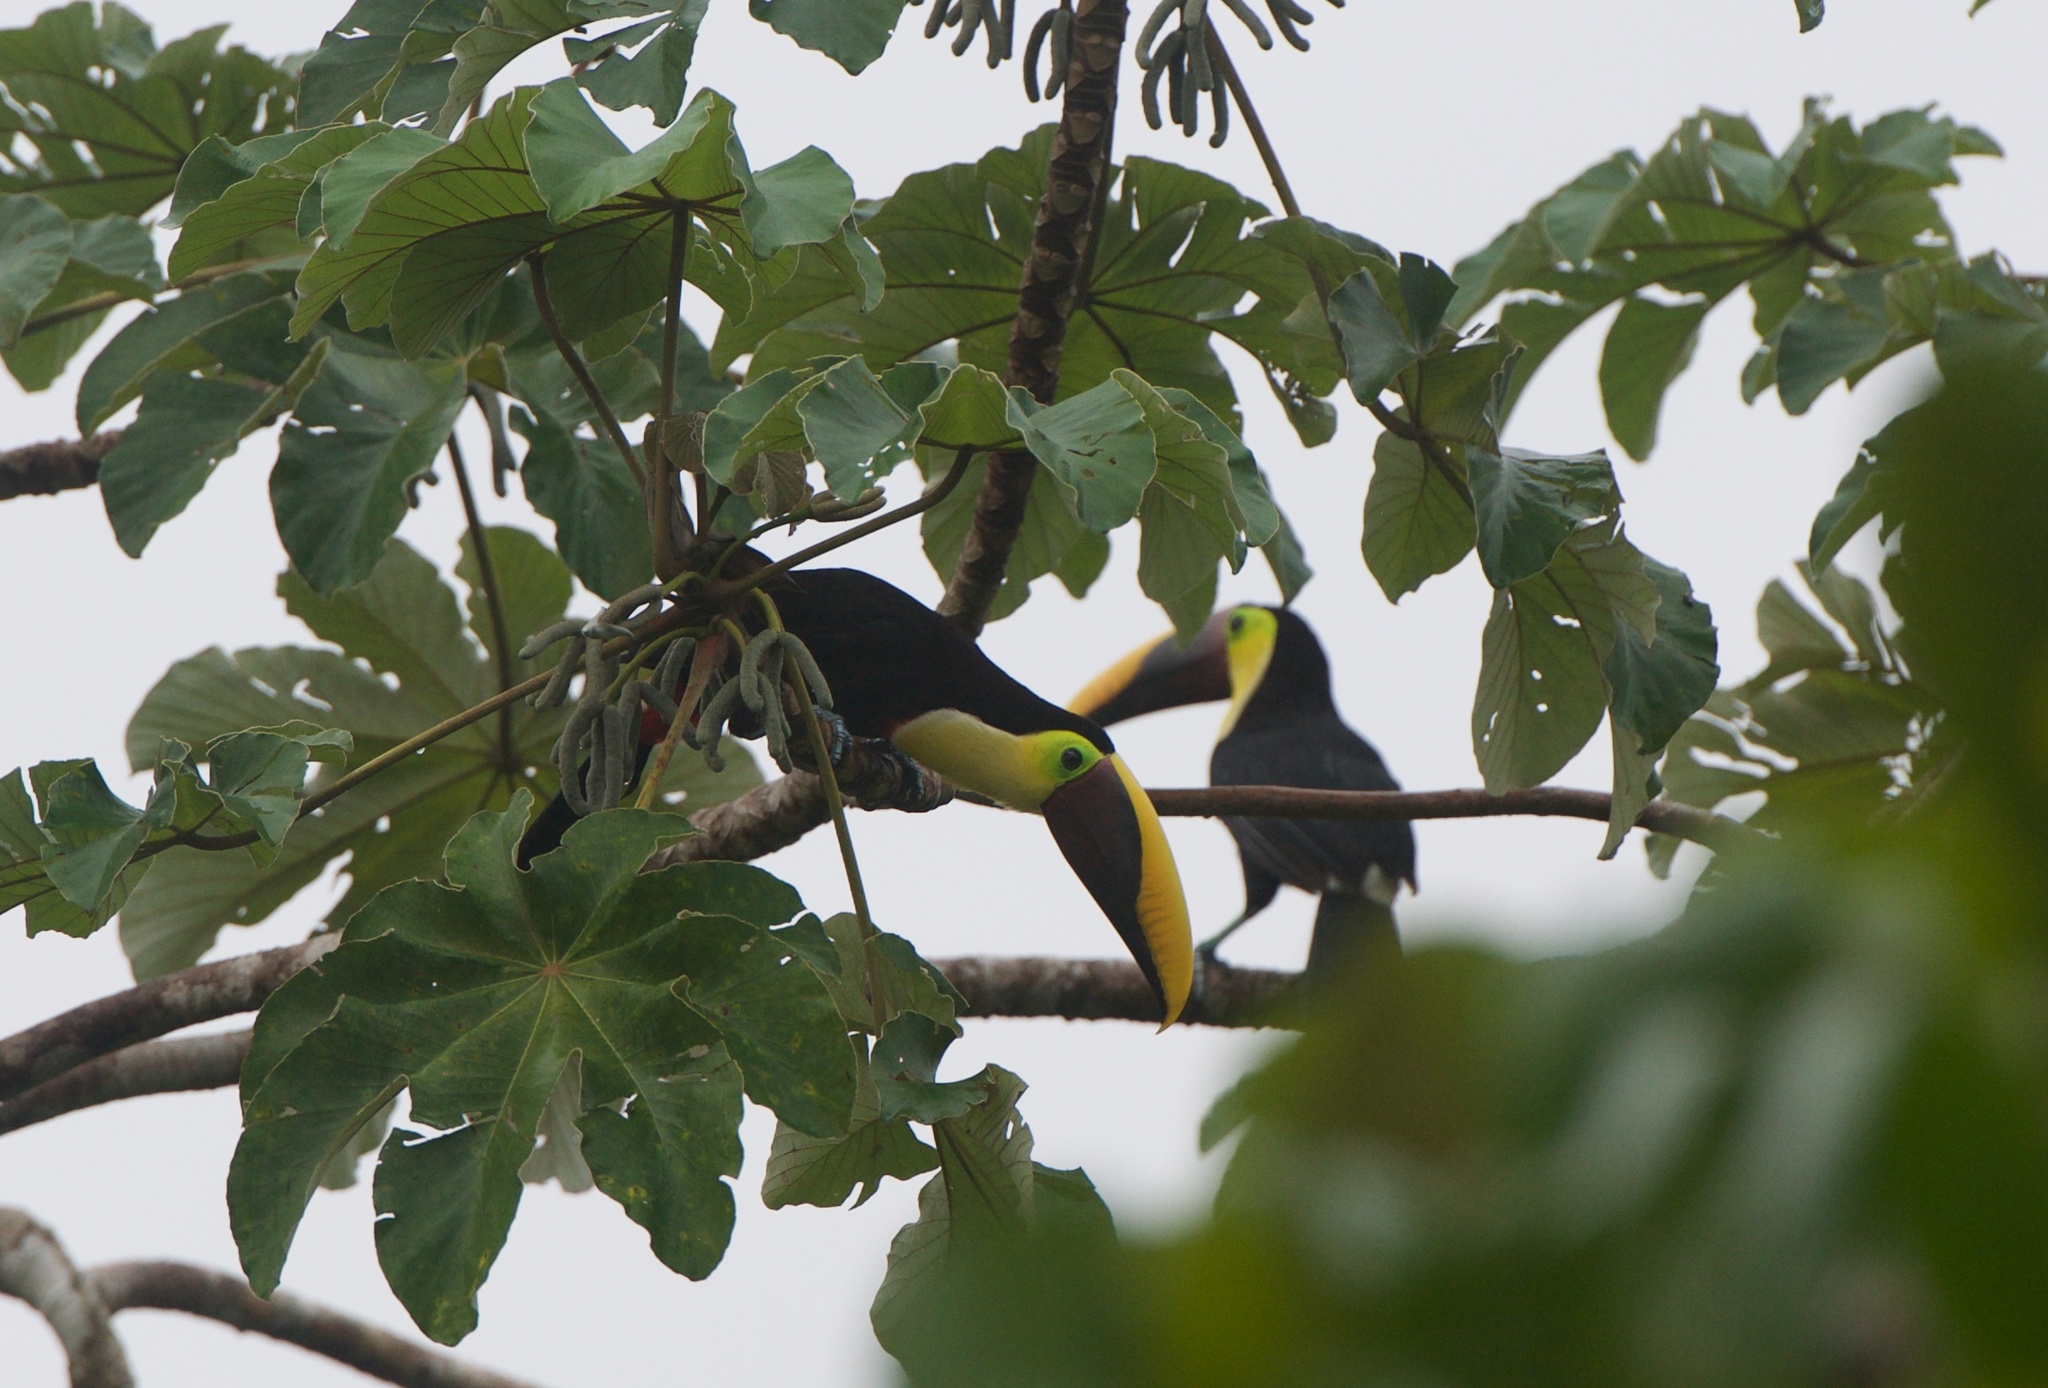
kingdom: Animalia
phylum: Chordata
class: Aves
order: Piciformes
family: Ramphastidae
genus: Ramphastos
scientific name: Ramphastos ambiguus
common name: Yellow-throated toucan
